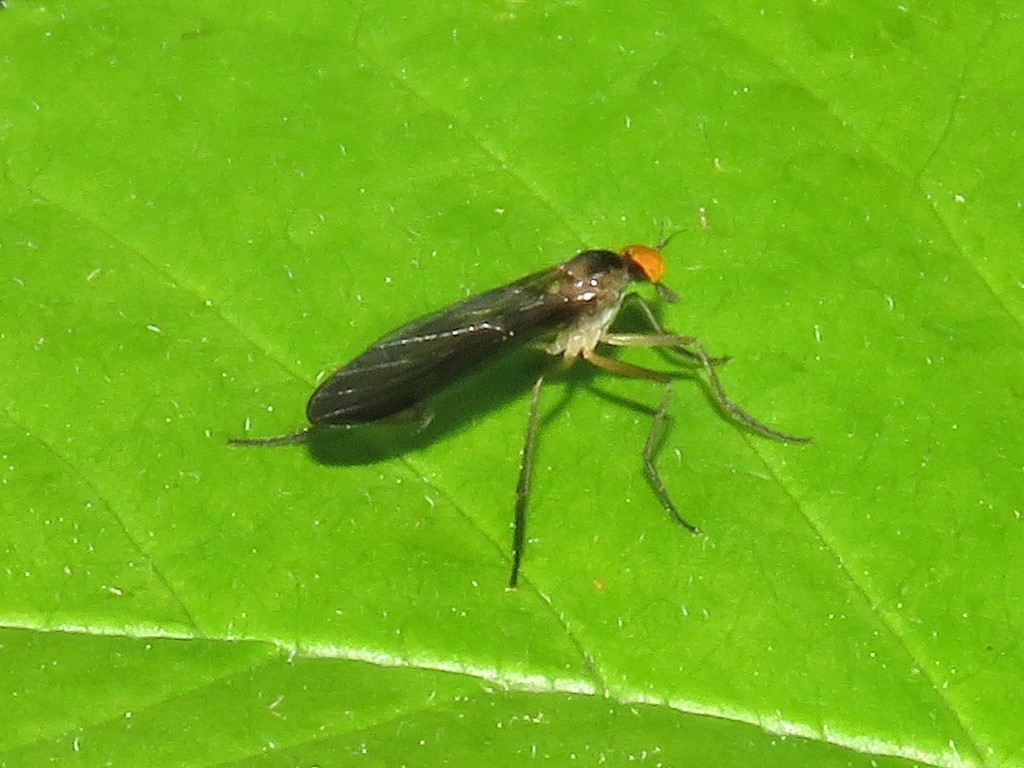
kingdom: Animalia
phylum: Arthropoda
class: Insecta
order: Diptera
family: Empididae
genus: Rhamphomyia
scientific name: Rhamphomyia longicauda
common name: Long-tailed dance fly
